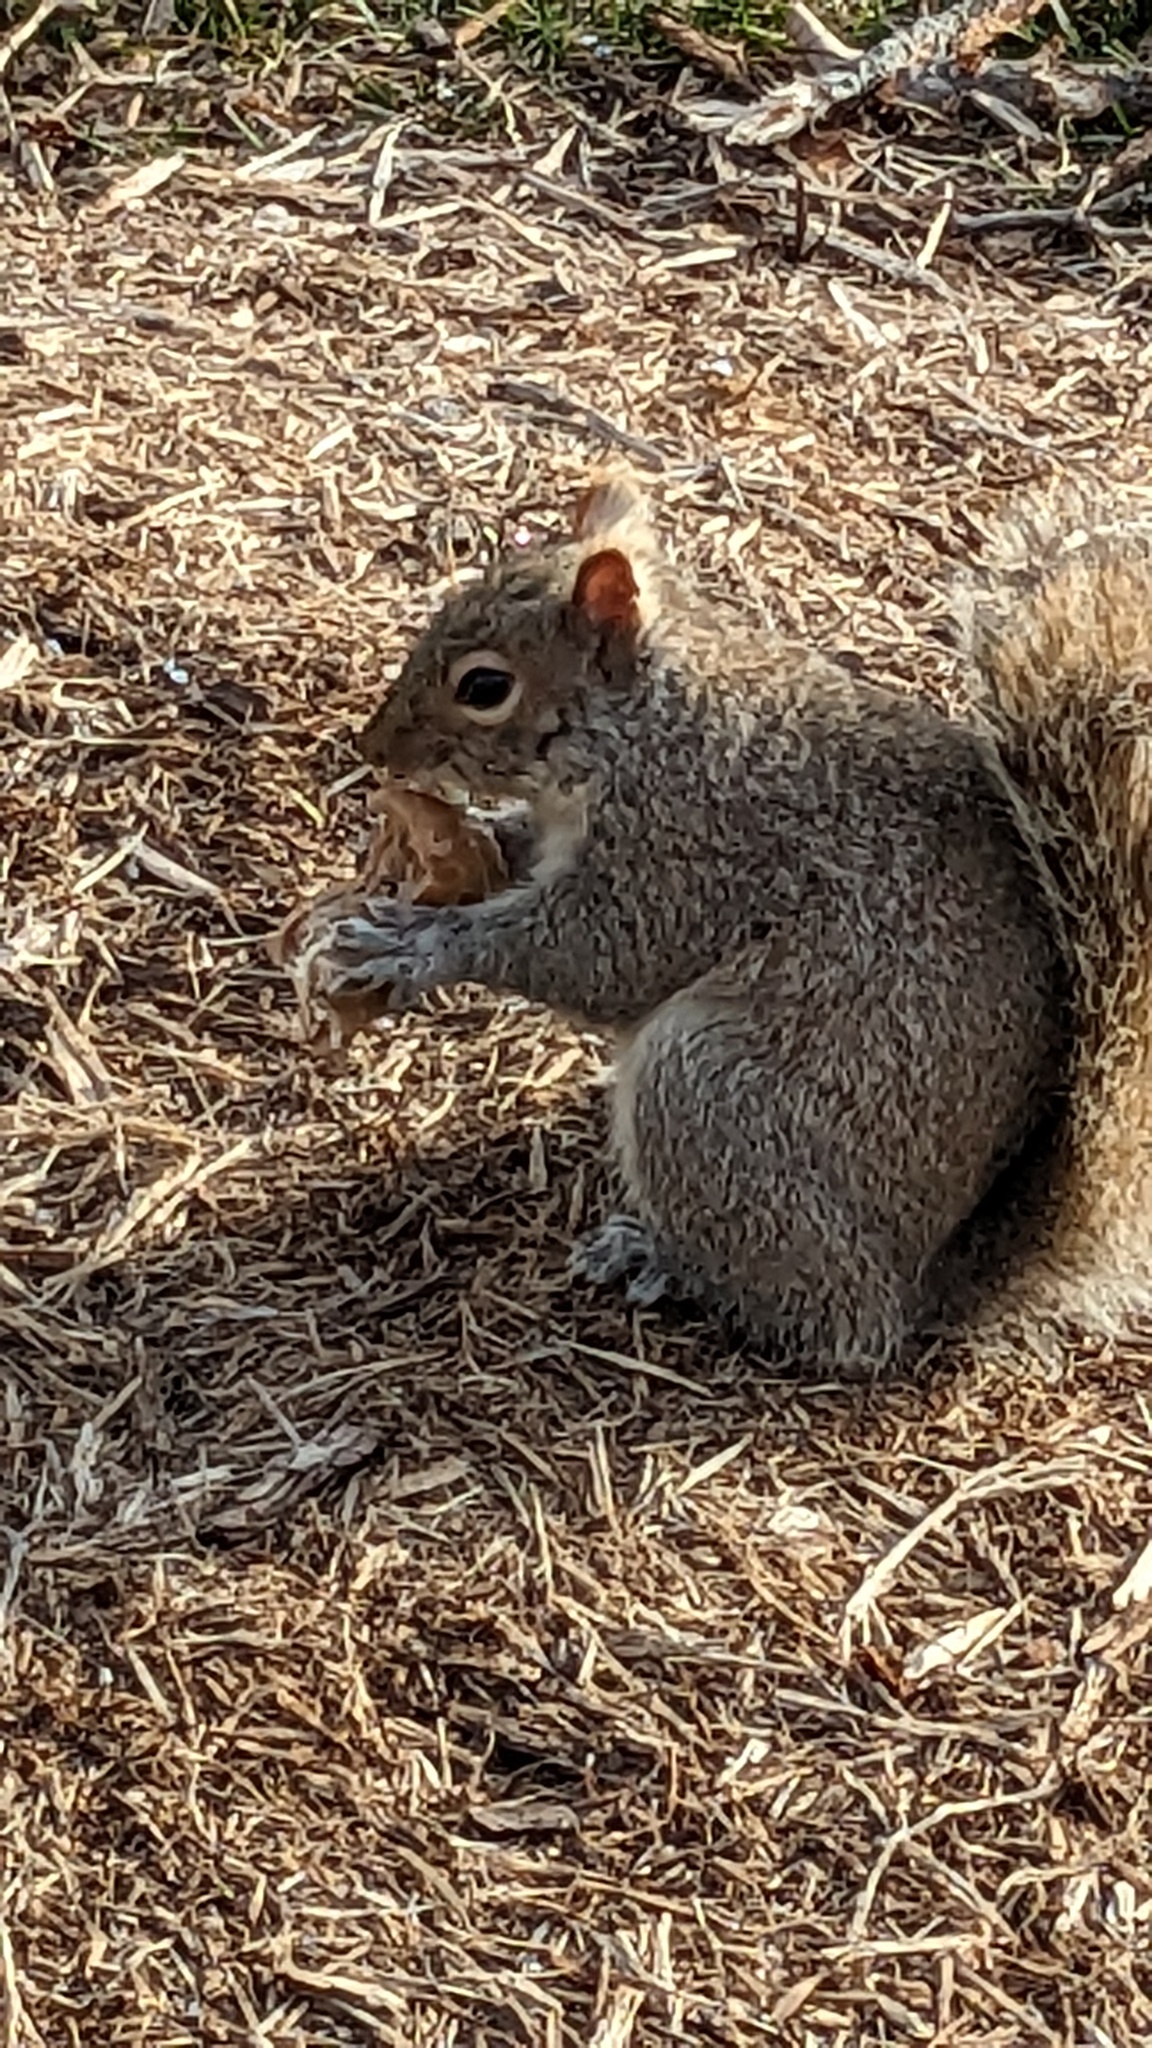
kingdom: Animalia
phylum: Chordata
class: Mammalia
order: Rodentia
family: Sciuridae
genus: Sciurus
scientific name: Sciurus carolinensis
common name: Eastern gray squirrel
